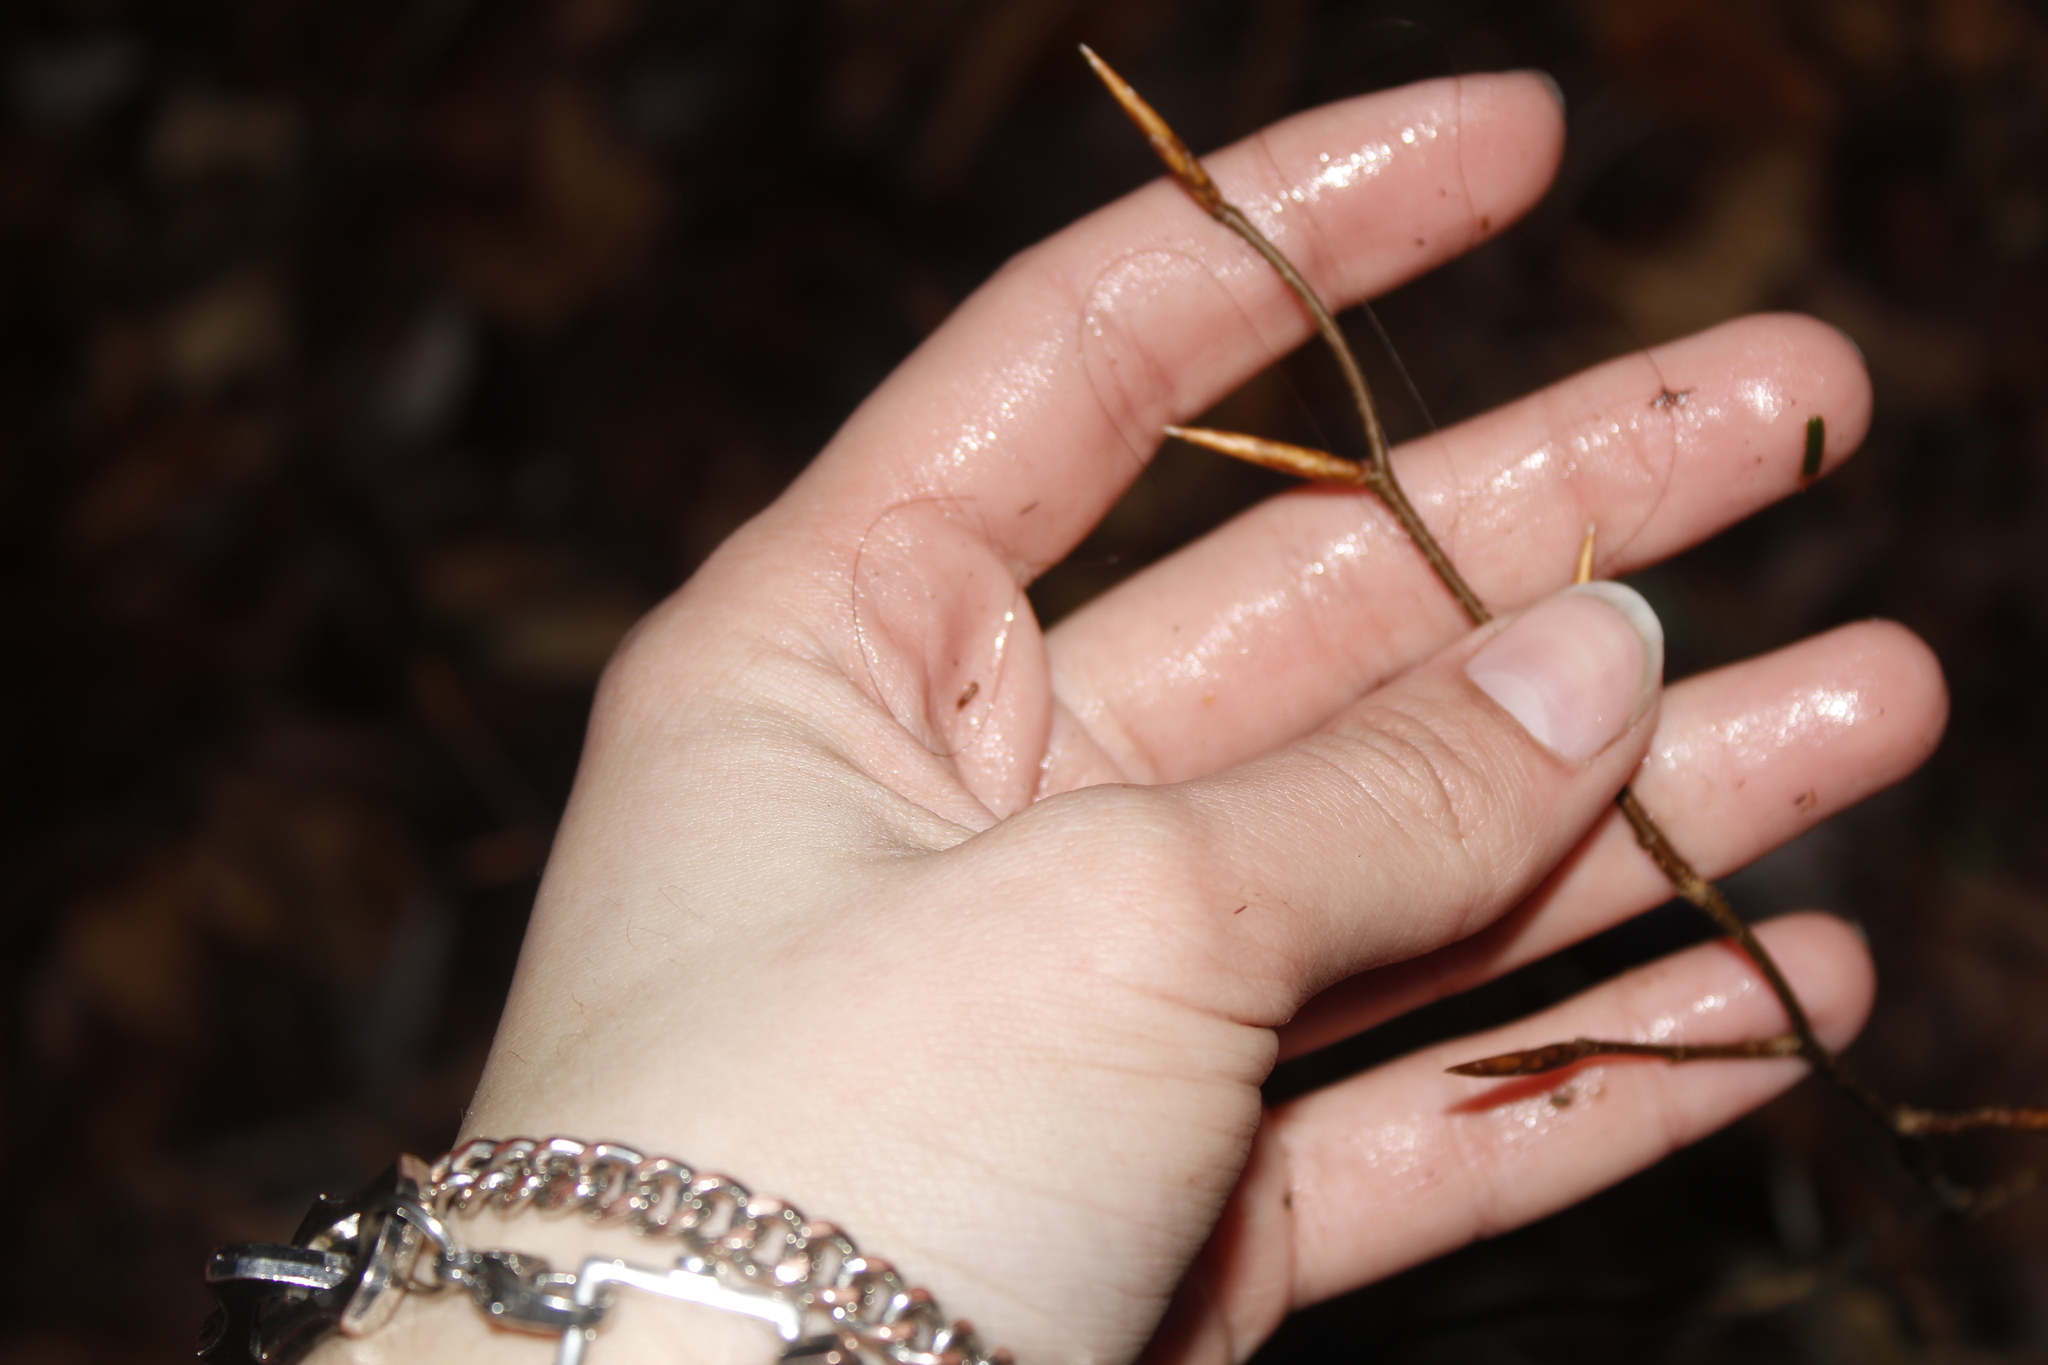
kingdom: Plantae
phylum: Tracheophyta
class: Magnoliopsida
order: Fagales
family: Fagaceae
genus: Fagus
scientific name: Fagus grandifolia
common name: American beech
